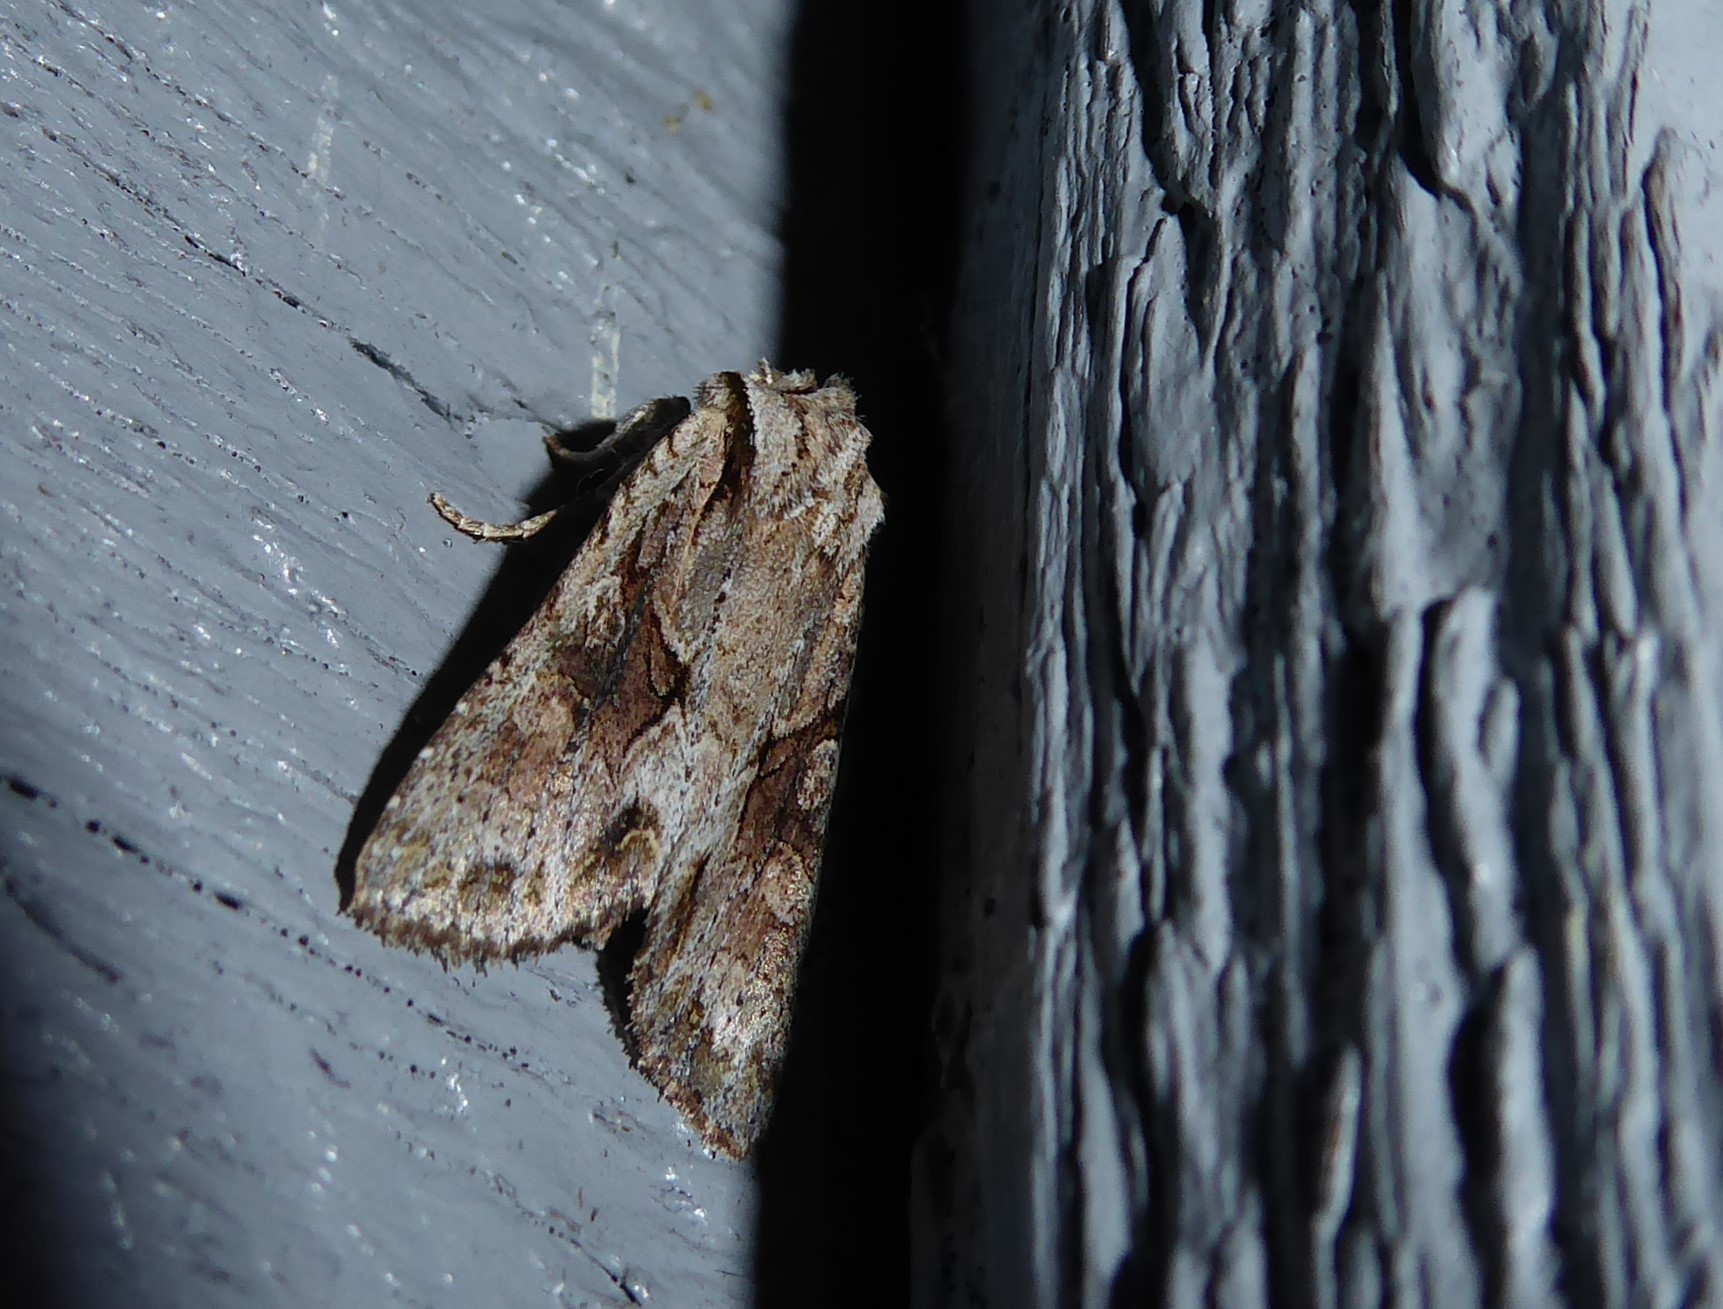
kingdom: Animalia
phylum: Arthropoda
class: Insecta
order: Lepidoptera
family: Noctuidae
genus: Ichneutica
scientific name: Ichneutica mutans
